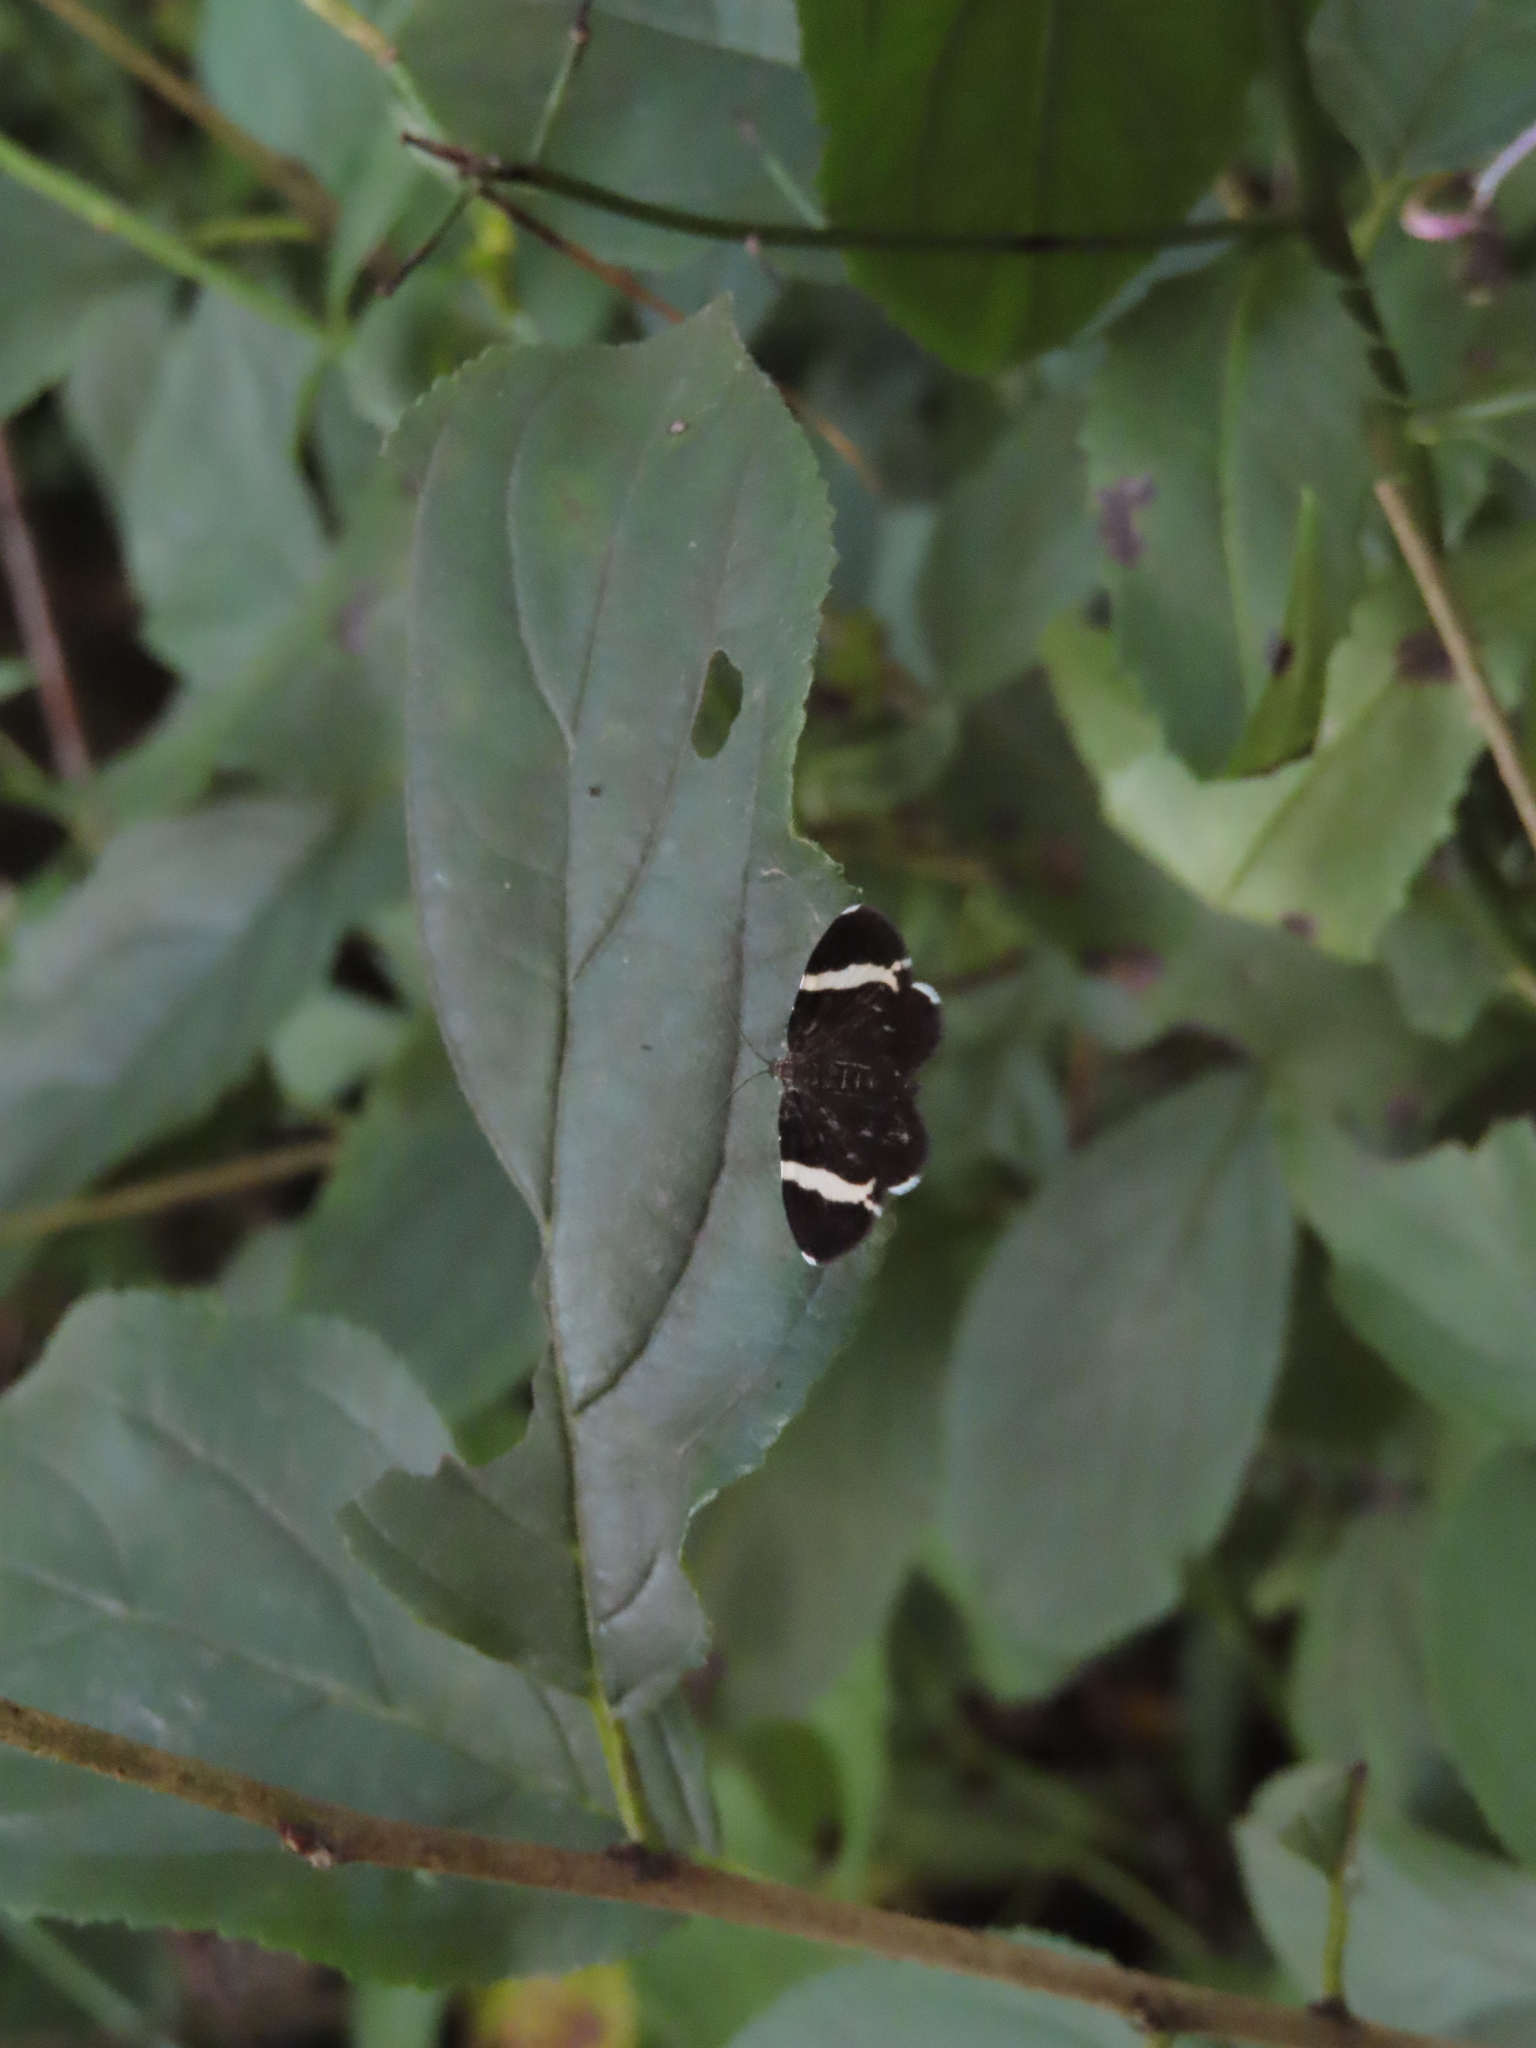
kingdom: Animalia
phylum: Arthropoda
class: Insecta
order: Lepidoptera
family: Geometridae
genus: Trichodezia
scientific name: Trichodezia albovittata
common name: White striped black
